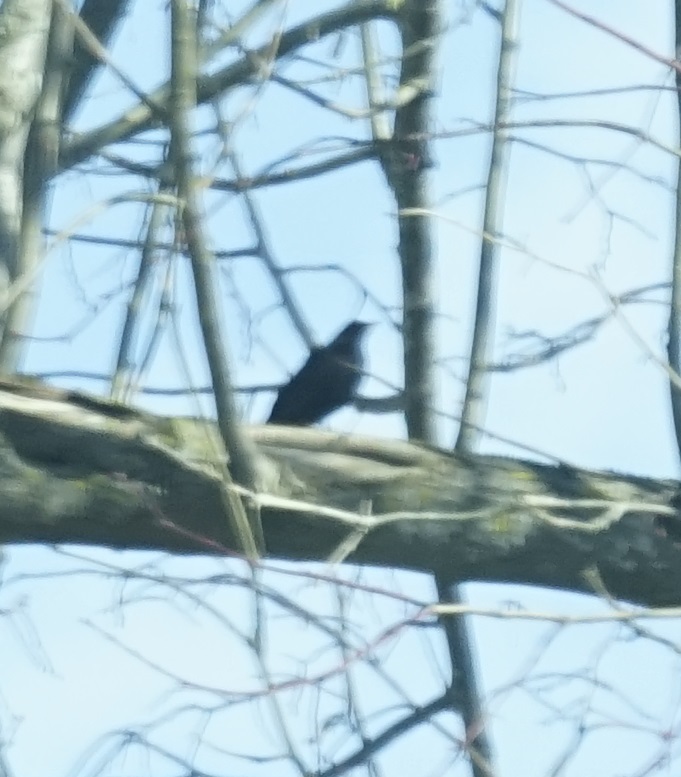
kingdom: Animalia
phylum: Chordata
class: Aves
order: Passeriformes
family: Turdidae
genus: Turdus
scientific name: Turdus merula
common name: Common blackbird
